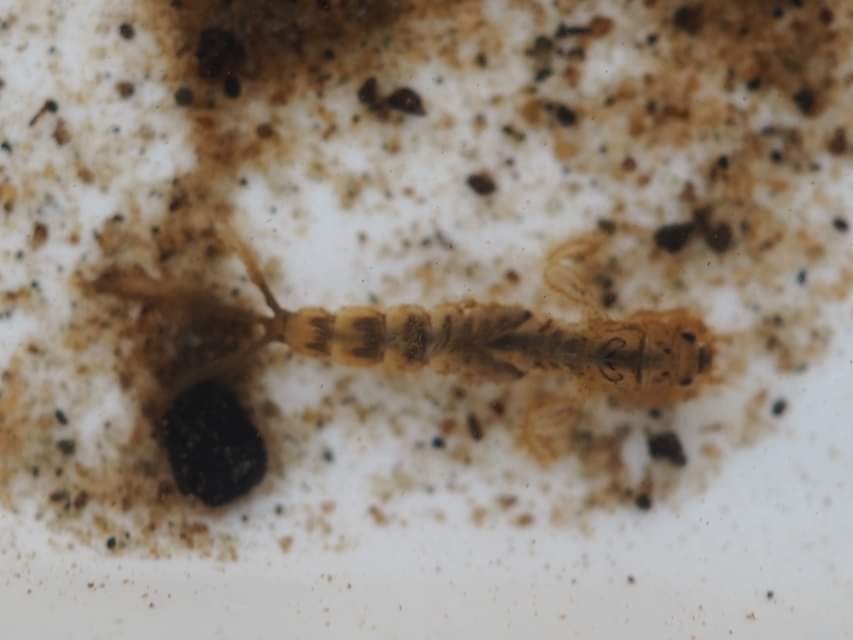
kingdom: Animalia
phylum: Arthropoda
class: Insecta
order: Ephemeroptera
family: Ephemeridae
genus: Ephemera
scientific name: Ephemera danica
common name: Green dun
